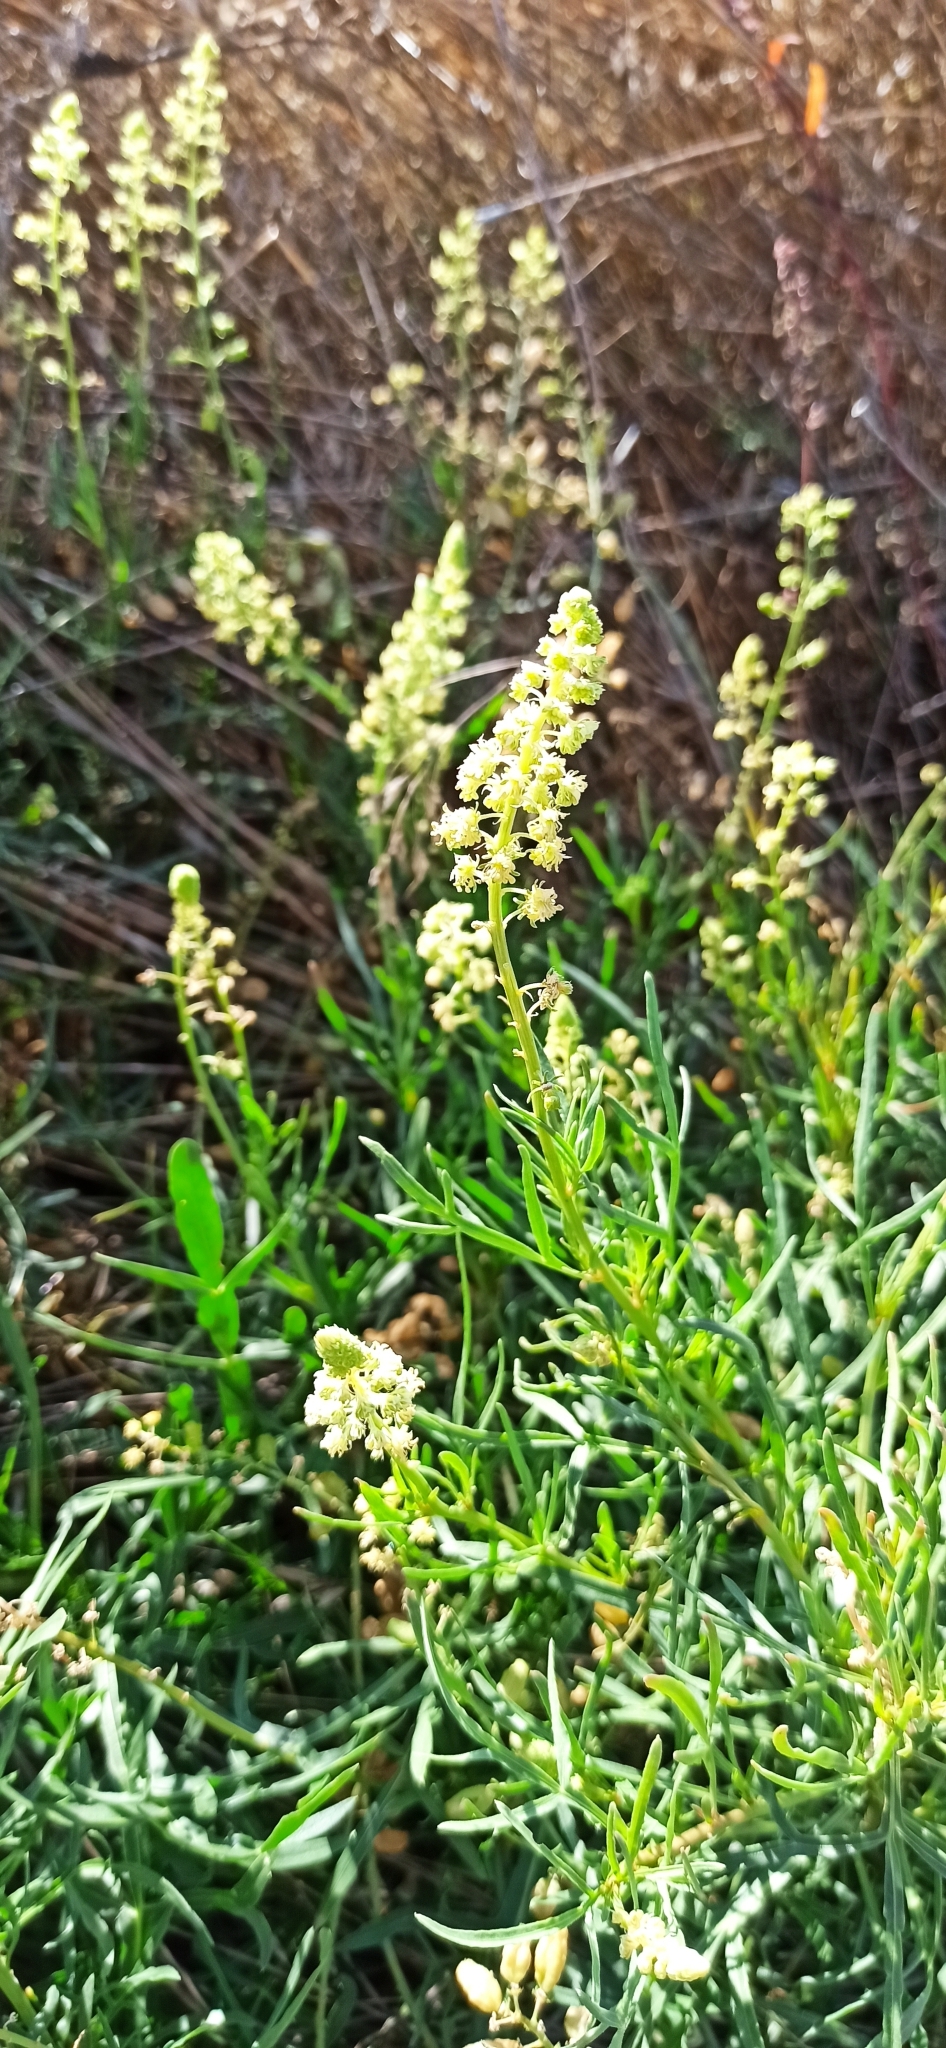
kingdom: Plantae
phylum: Tracheophyta
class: Magnoliopsida
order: Brassicales
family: Resedaceae
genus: Reseda
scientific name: Reseda lutea
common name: Wild mignonette
